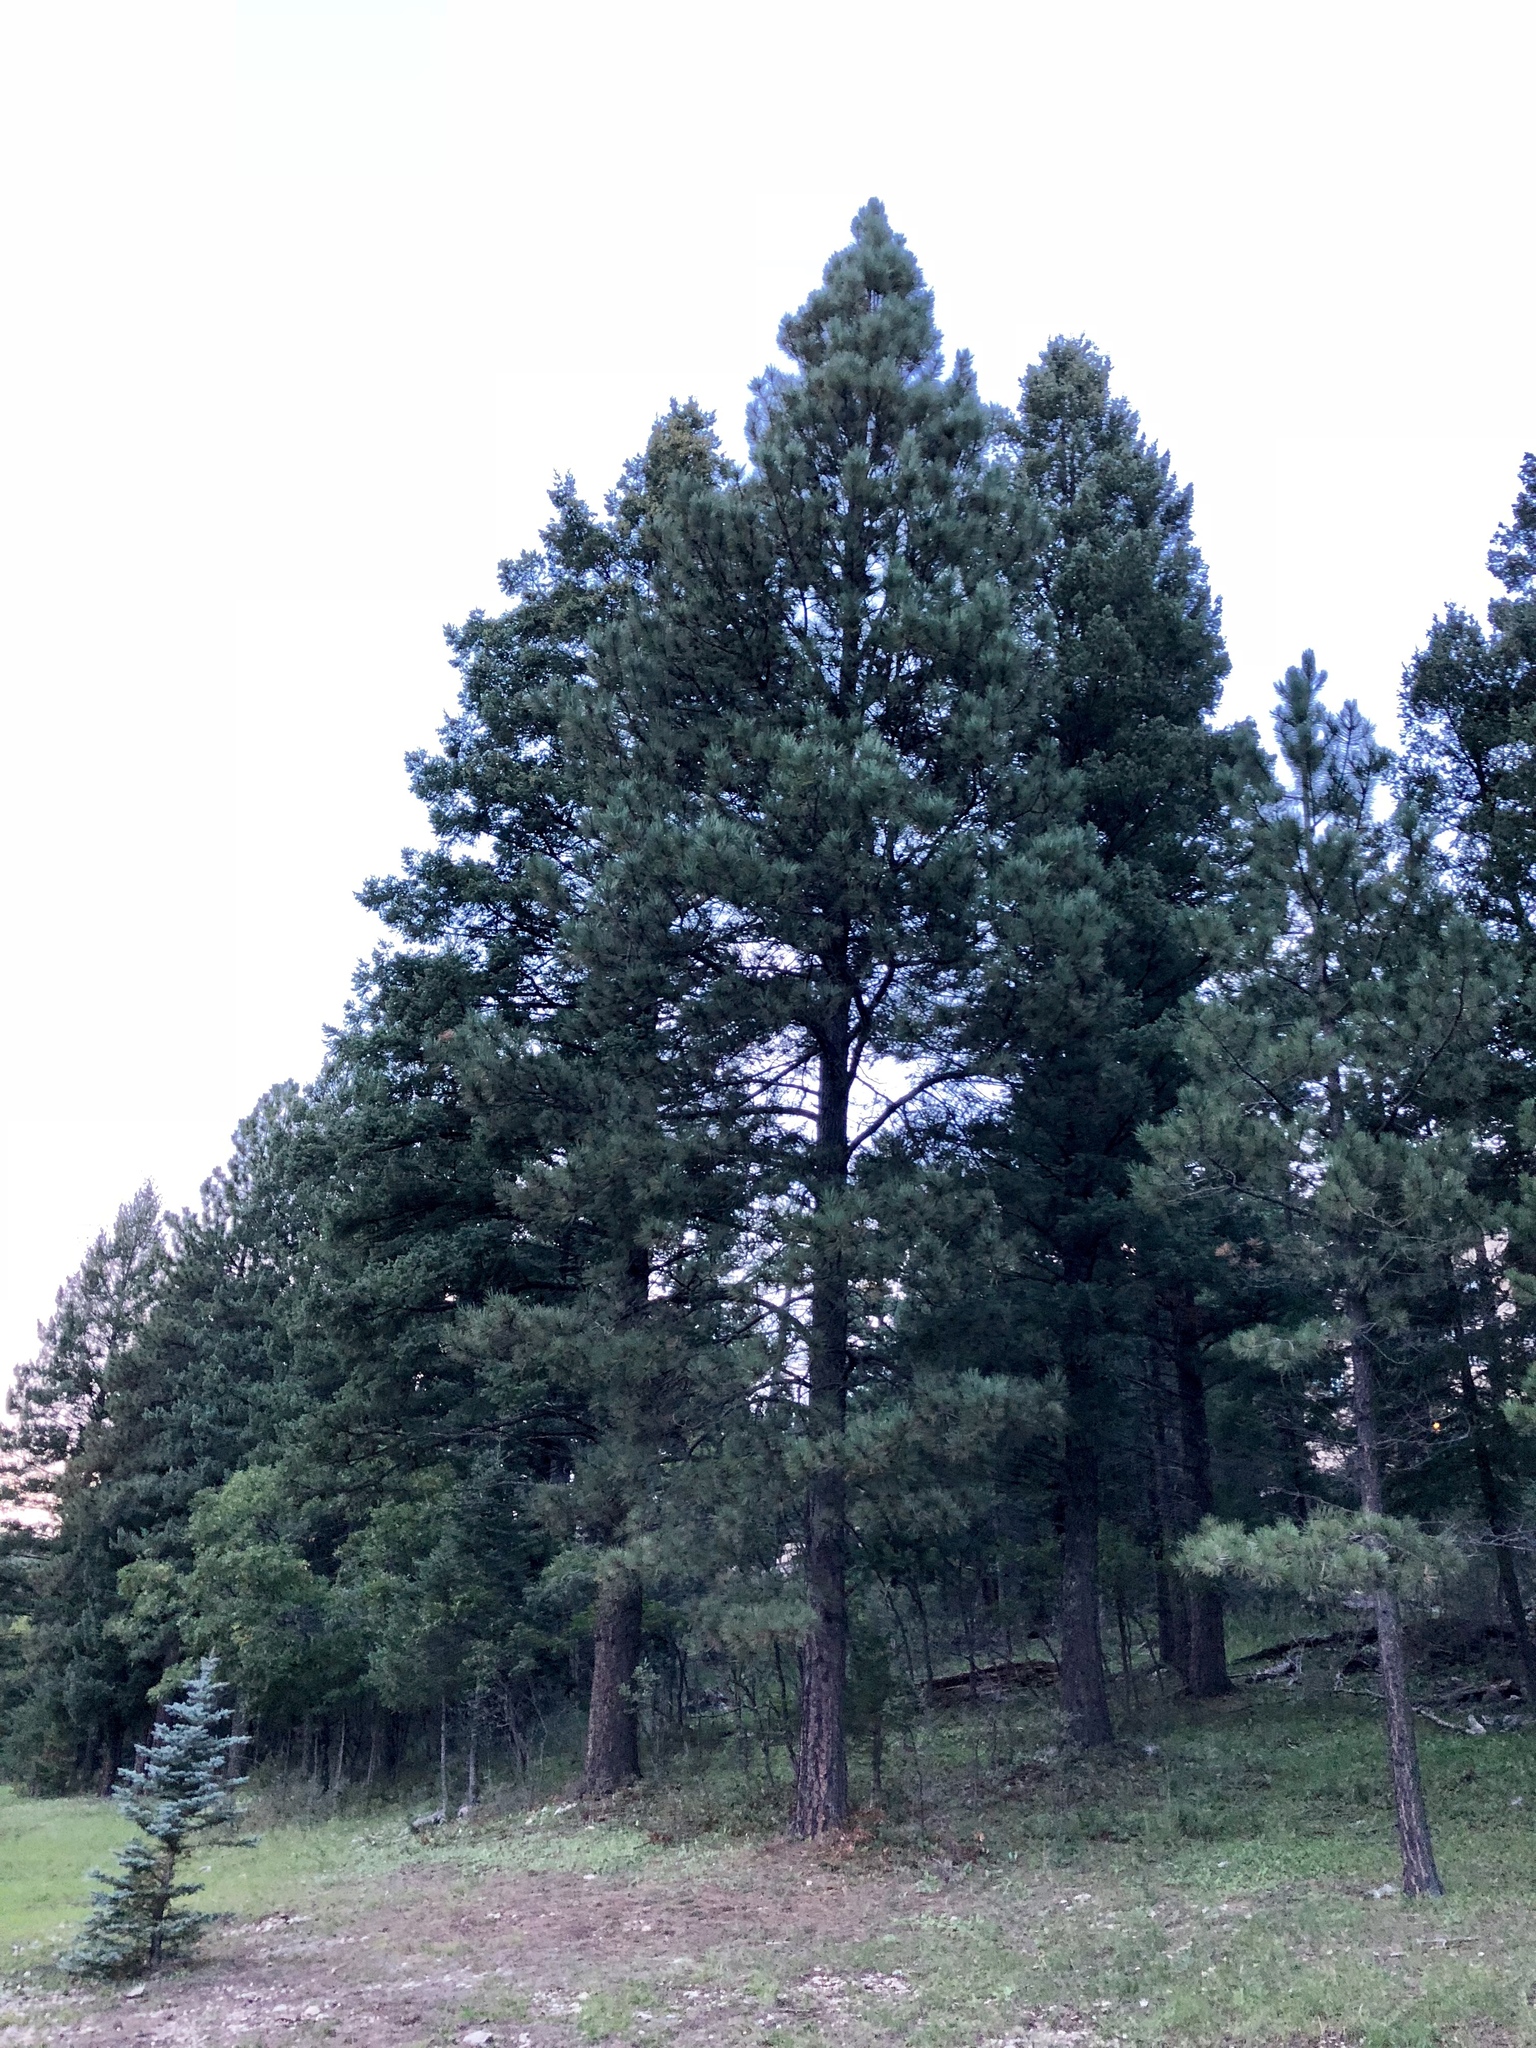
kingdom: Plantae
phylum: Tracheophyta
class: Pinopsida
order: Pinales
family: Pinaceae
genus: Pinus
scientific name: Pinus ponderosa
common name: Western yellow-pine
